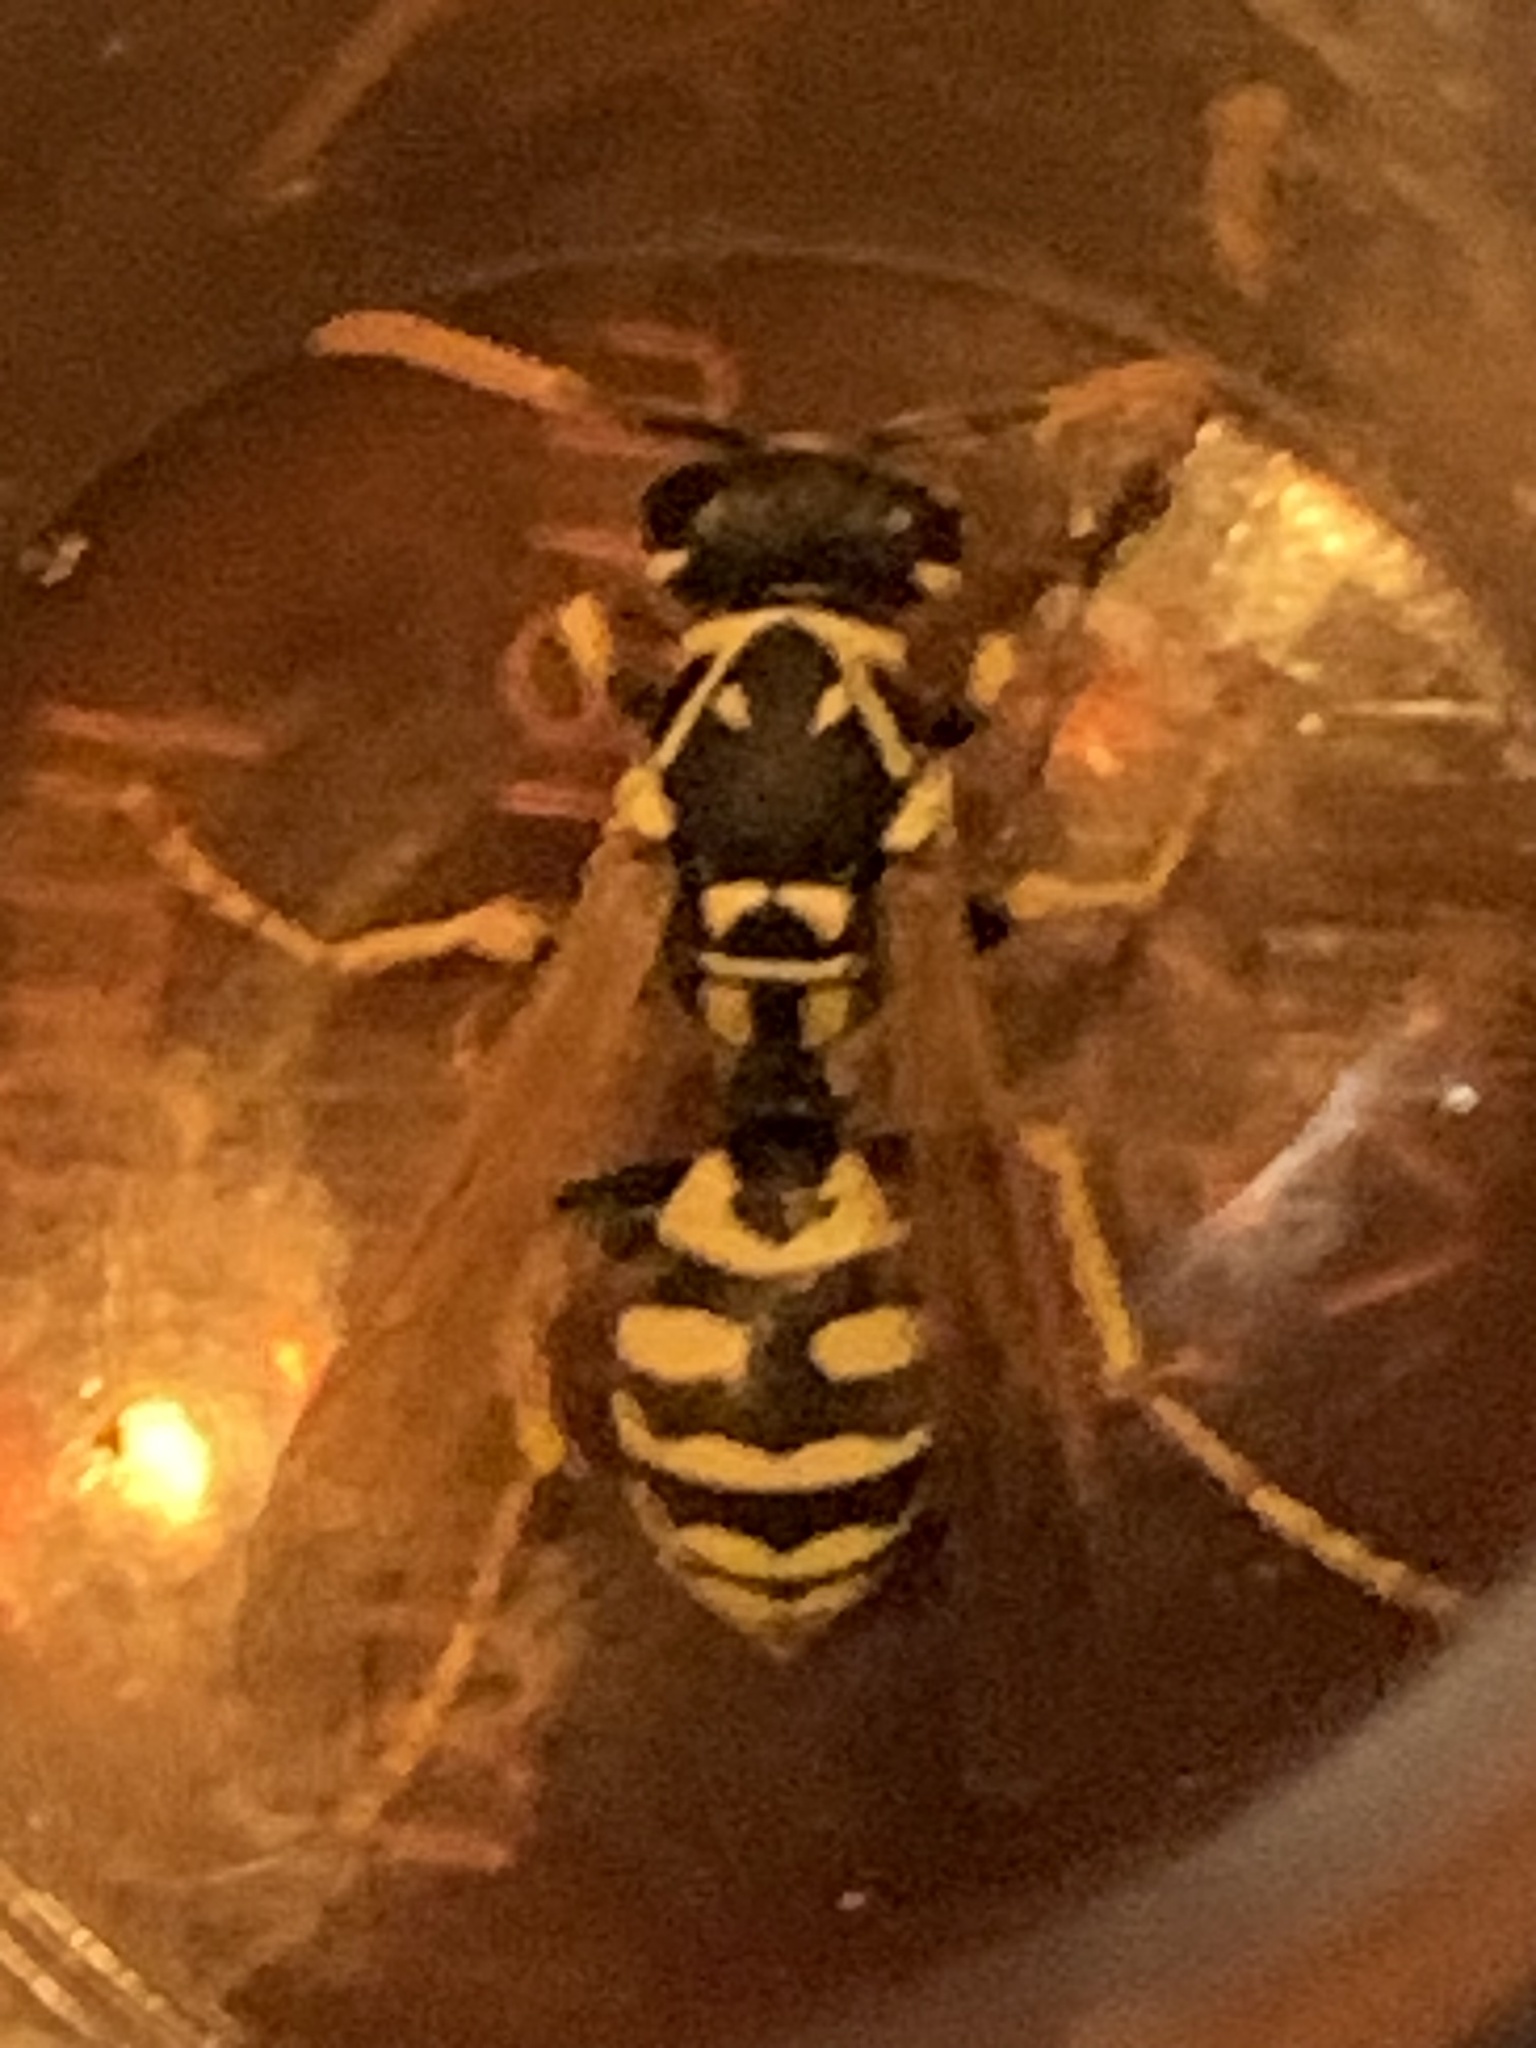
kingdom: Animalia
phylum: Arthropoda
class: Insecta
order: Hymenoptera
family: Eumenidae
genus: Polistes
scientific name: Polistes dominula
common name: Paper wasp
